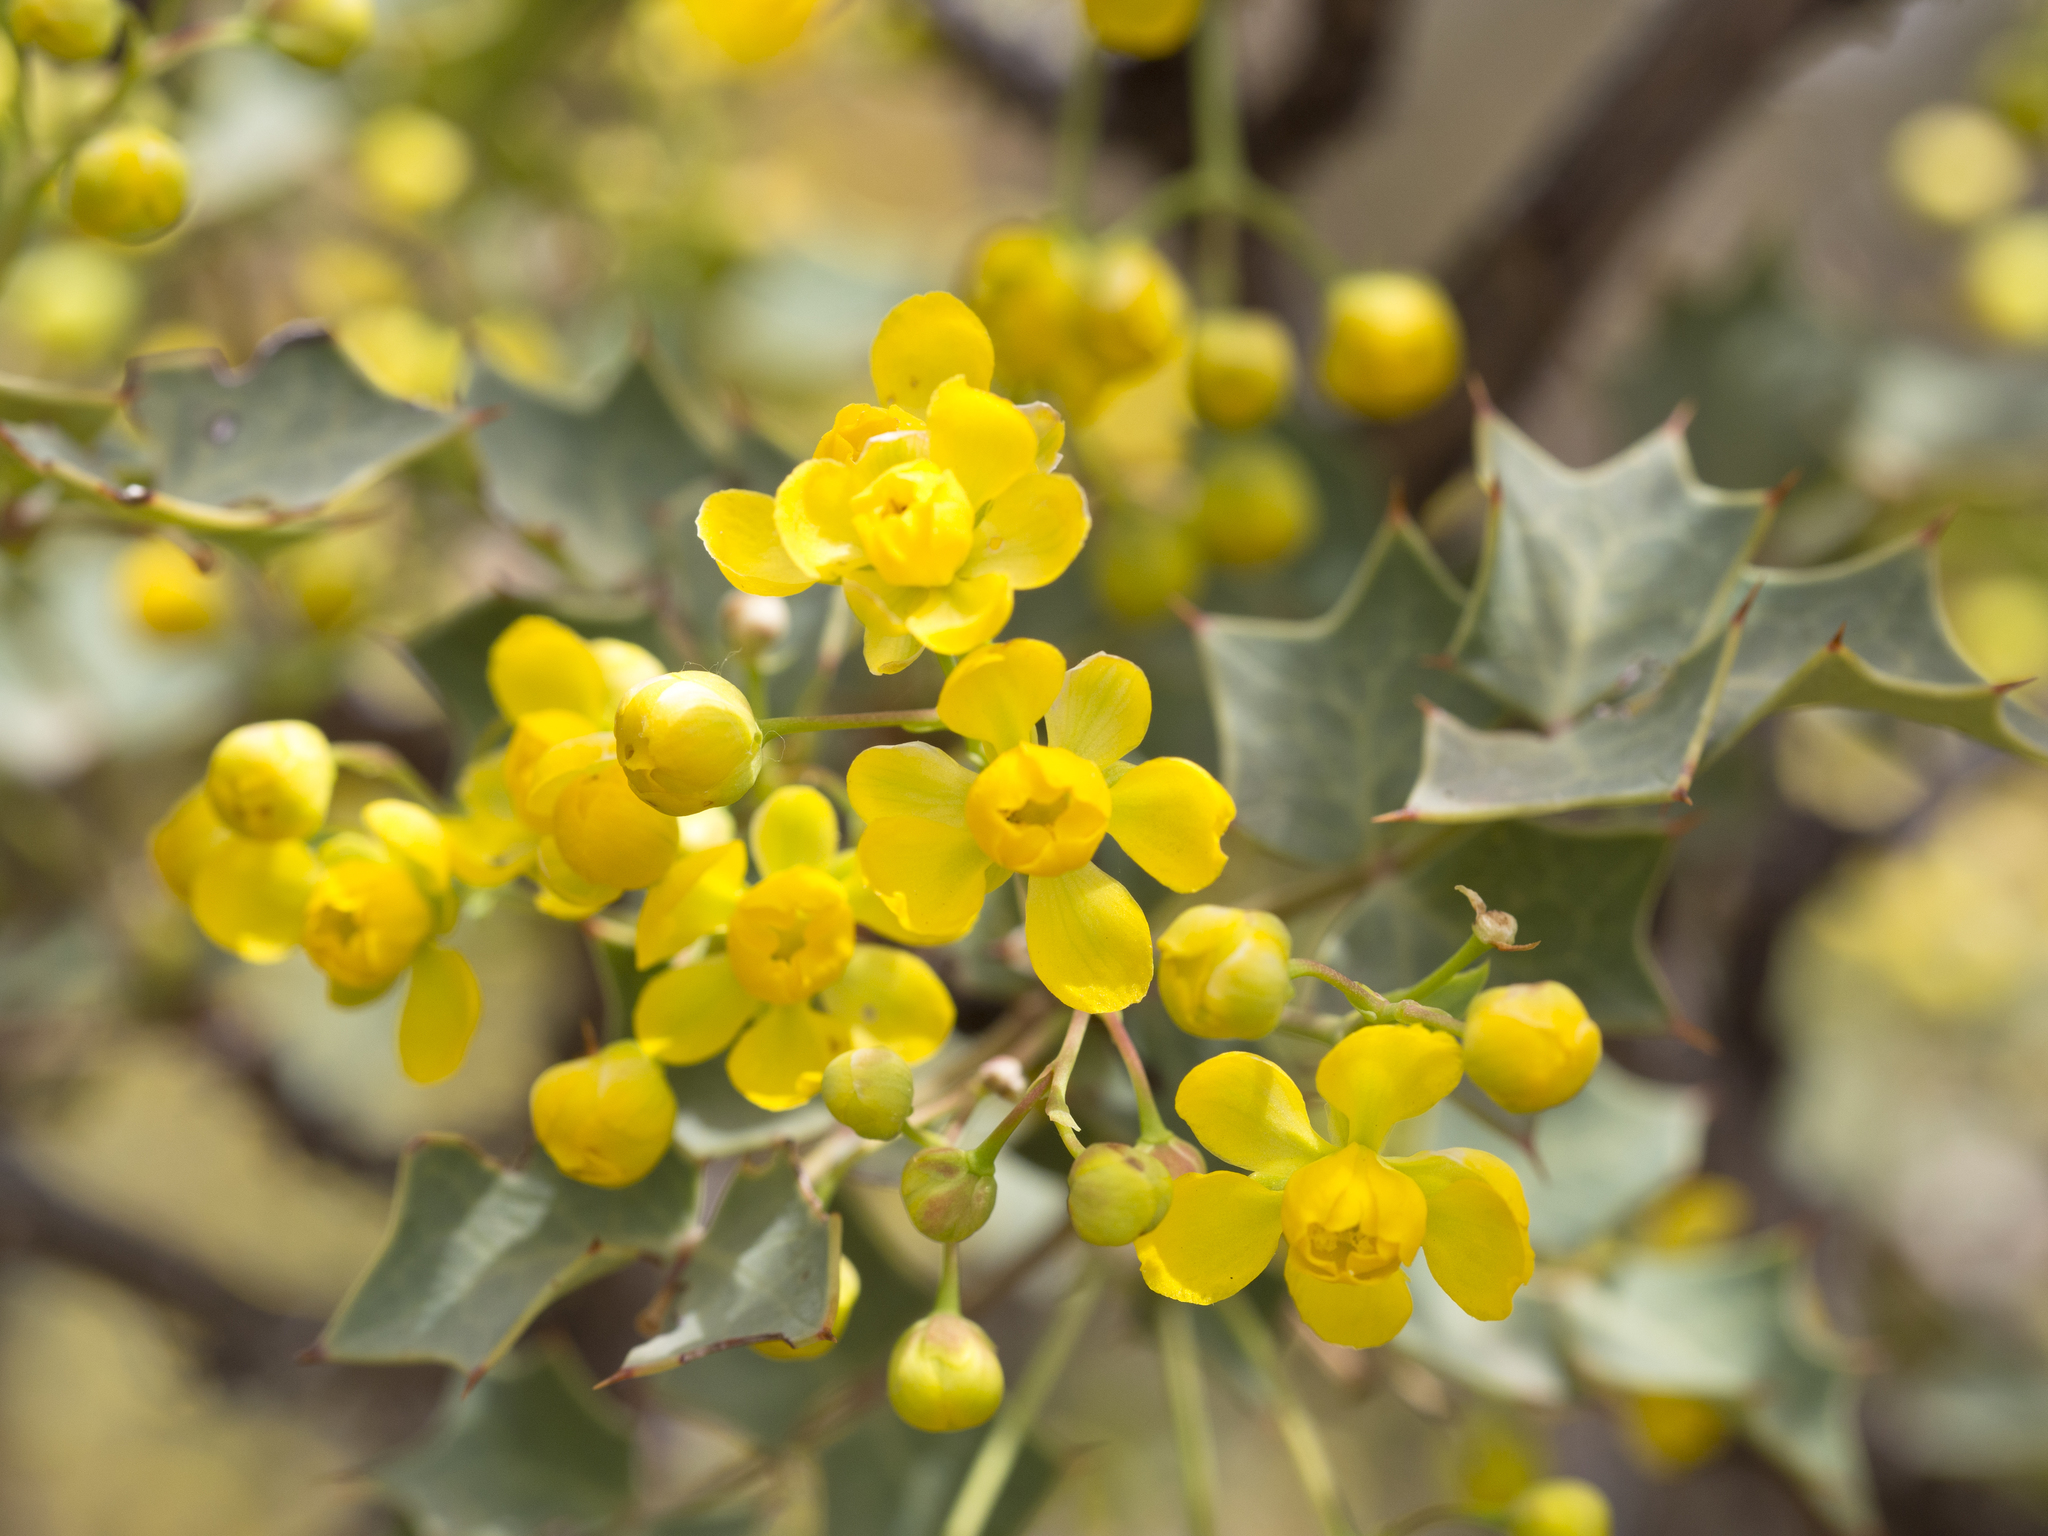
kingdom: Plantae
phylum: Tracheophyta
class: Magnoliopsida
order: Ranunculales
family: Berberidaceae
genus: Alloberberis
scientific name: Alloberberis fremontii
